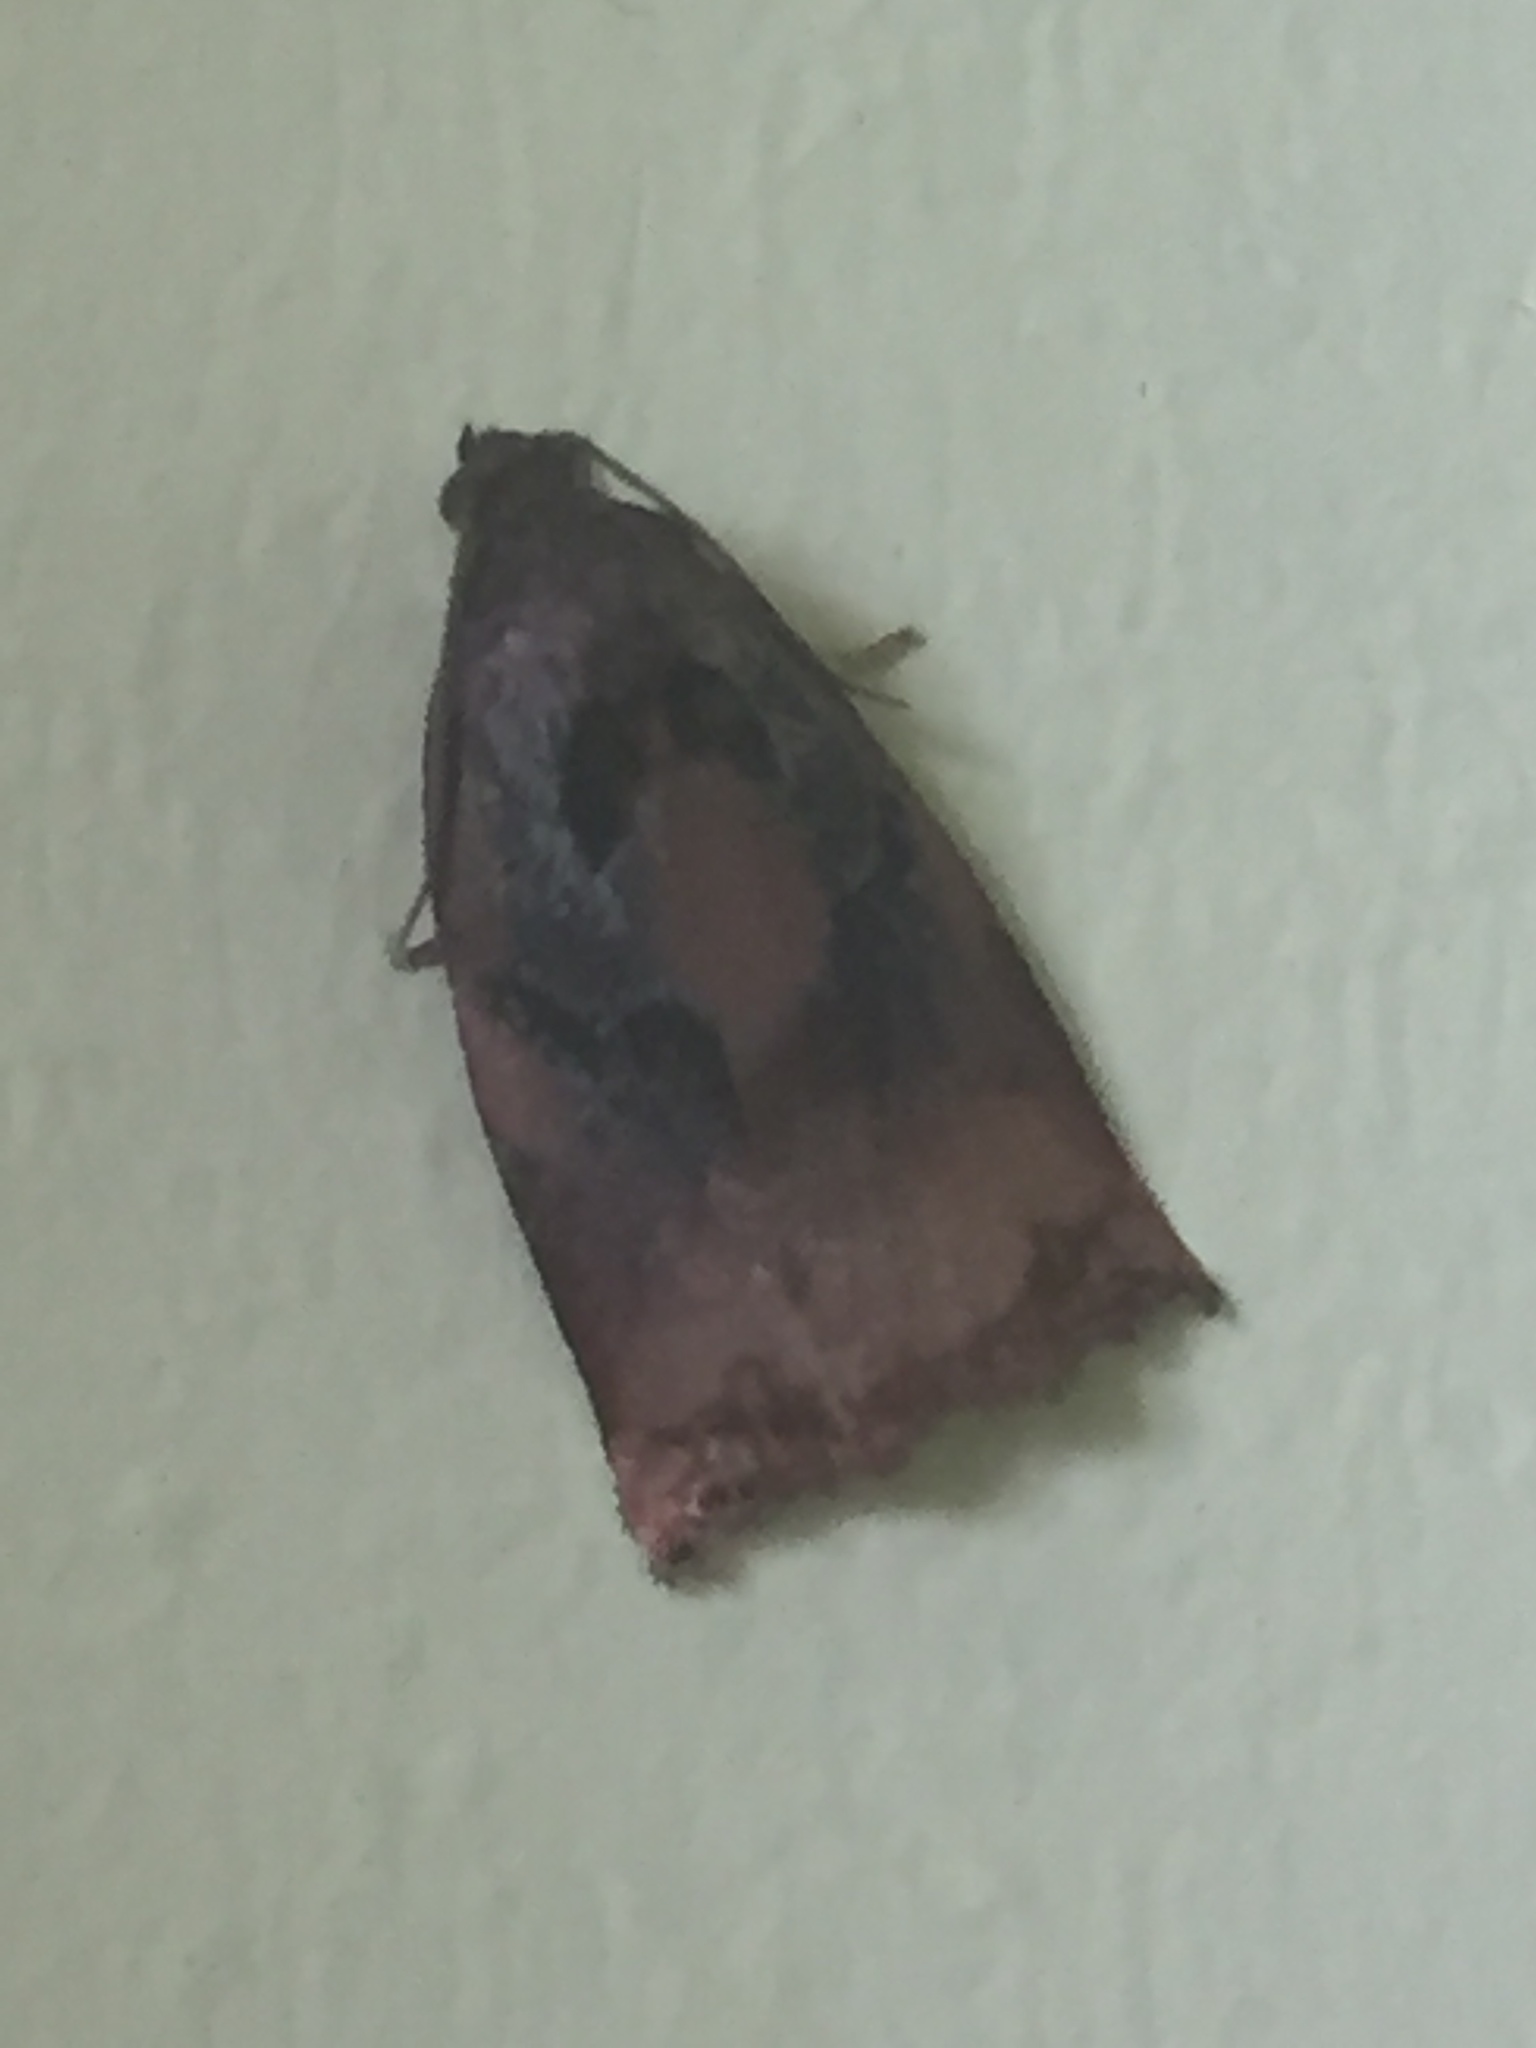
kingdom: Animalia
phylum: Arthropoda
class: Insecta
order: Lepidoptera
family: Tortricidae
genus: Archips
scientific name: Archips podana
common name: Large fruit-tree tortrix
